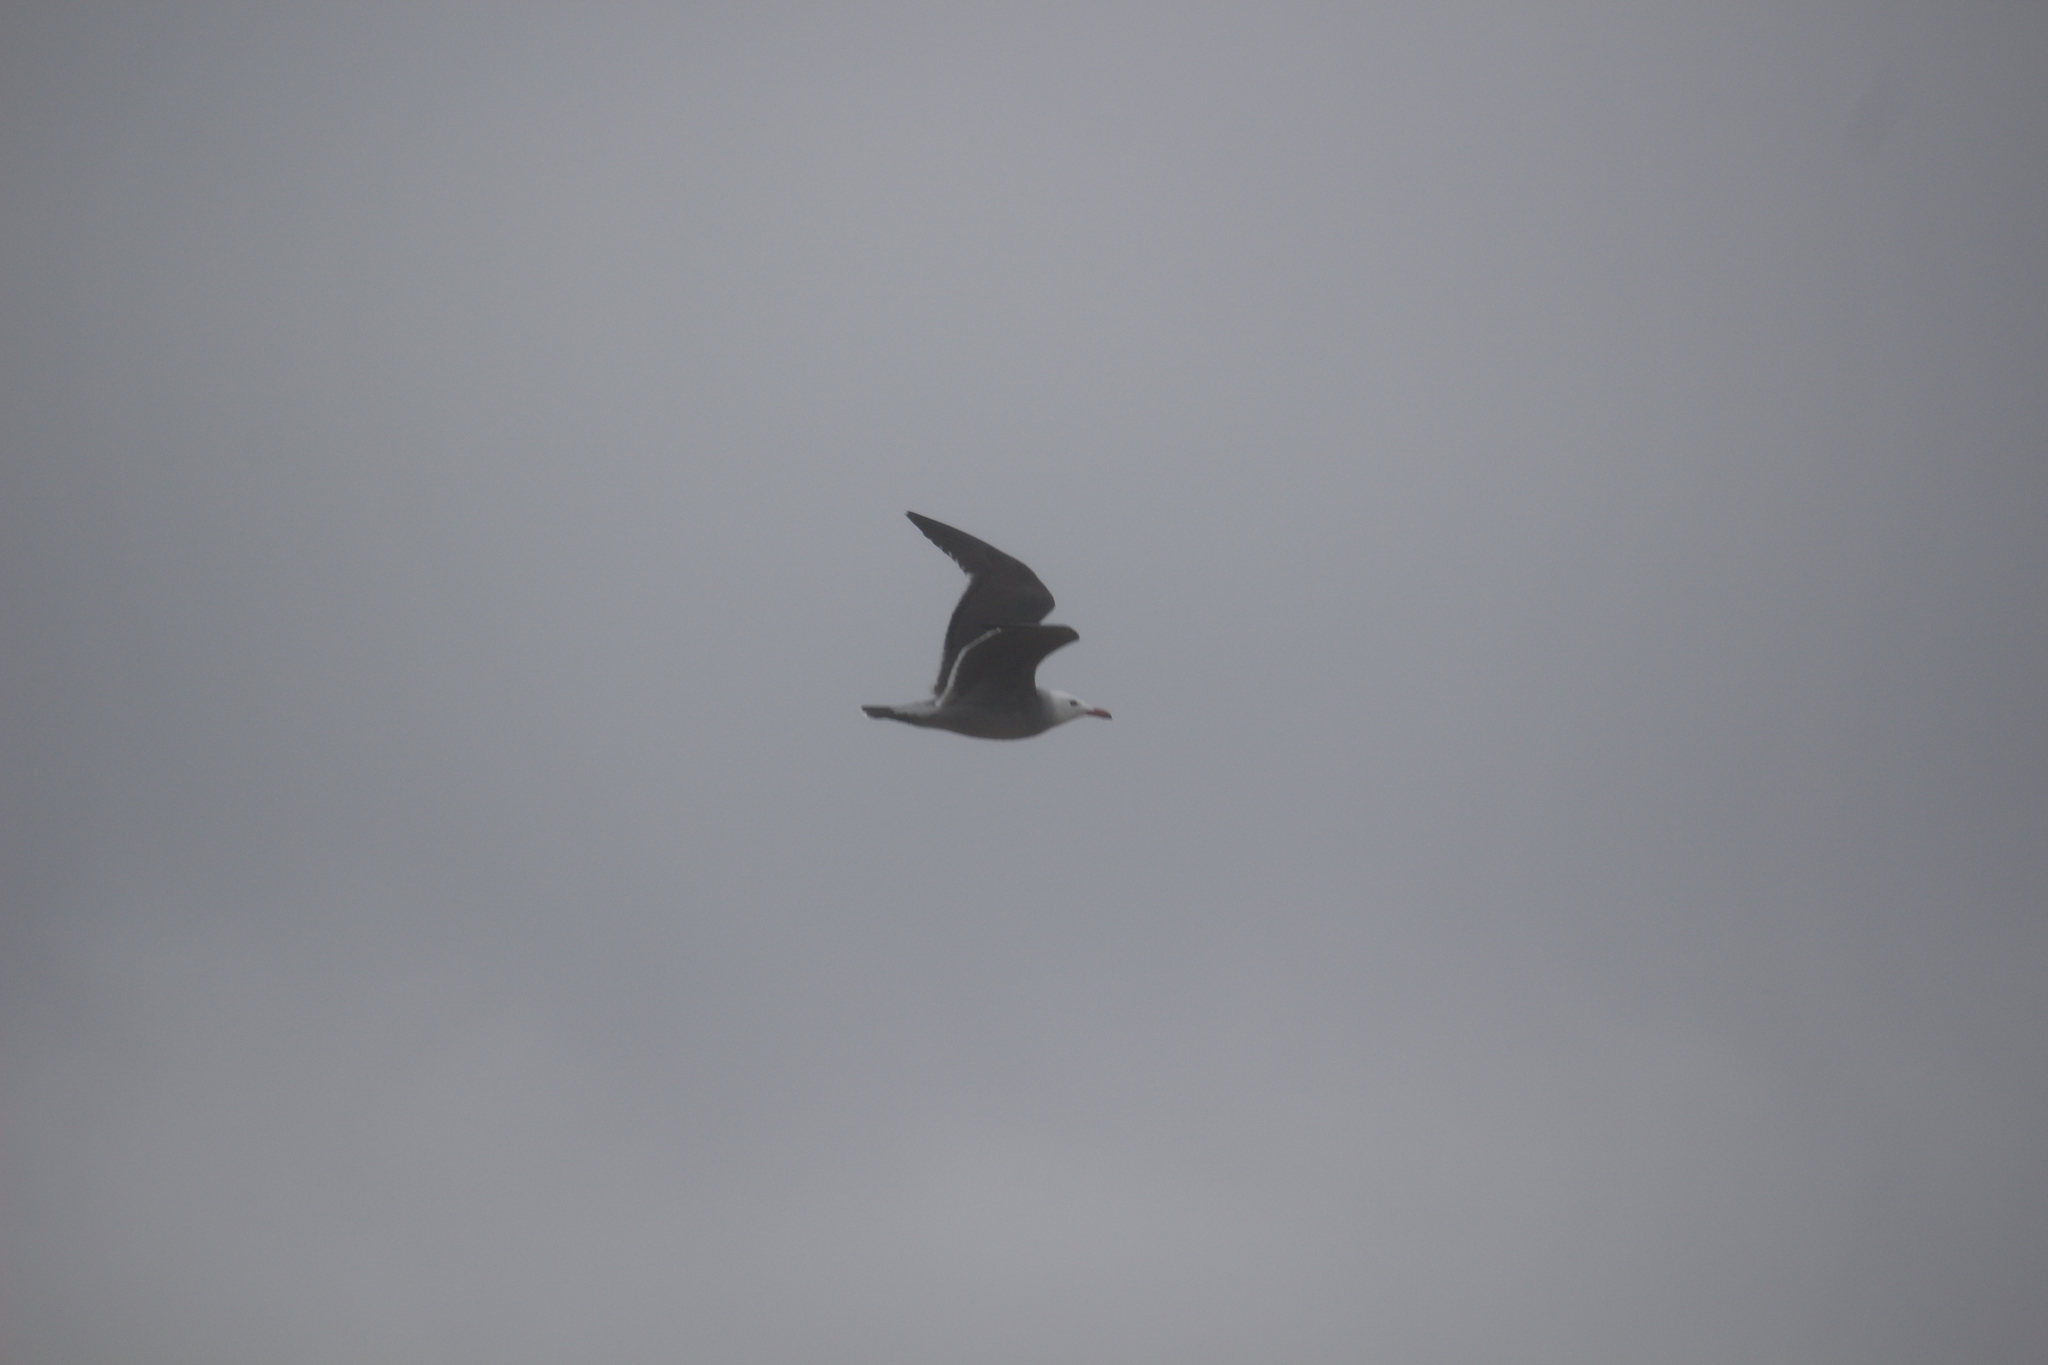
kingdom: Animalia
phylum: Chordata
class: Aves
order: Charadriiformes
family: Laridae
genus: Larus
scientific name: Larus heermanni
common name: Heermann's gull
